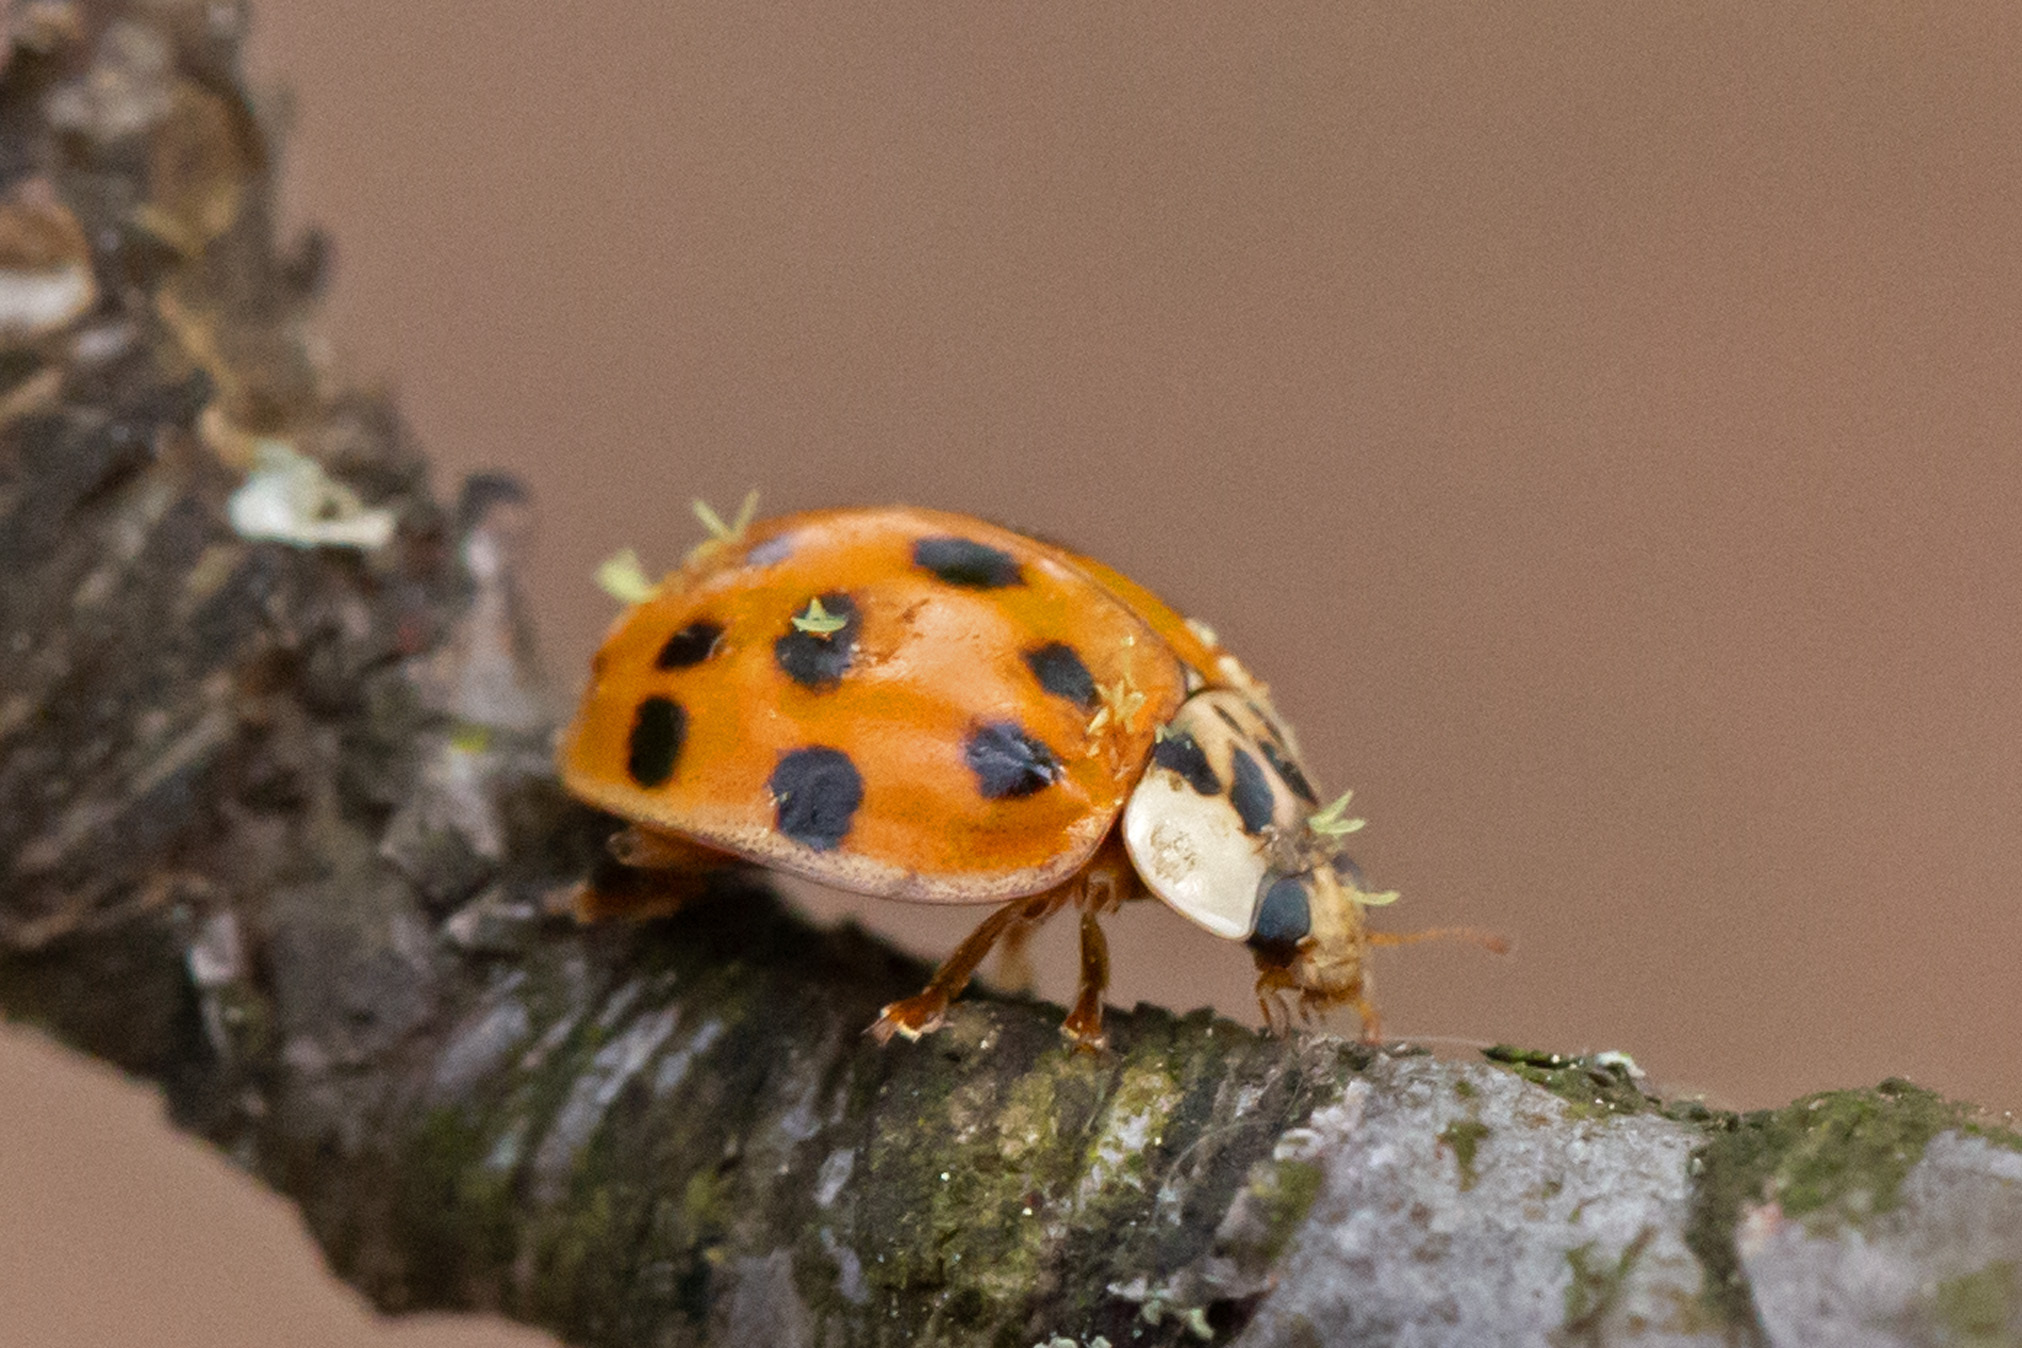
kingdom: Animalia
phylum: Arthropoda
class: Insecta
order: Coleoptera
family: Coccinellidae
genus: Harmonia
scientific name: Harmonia axyridis
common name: Harlequin ladybird
